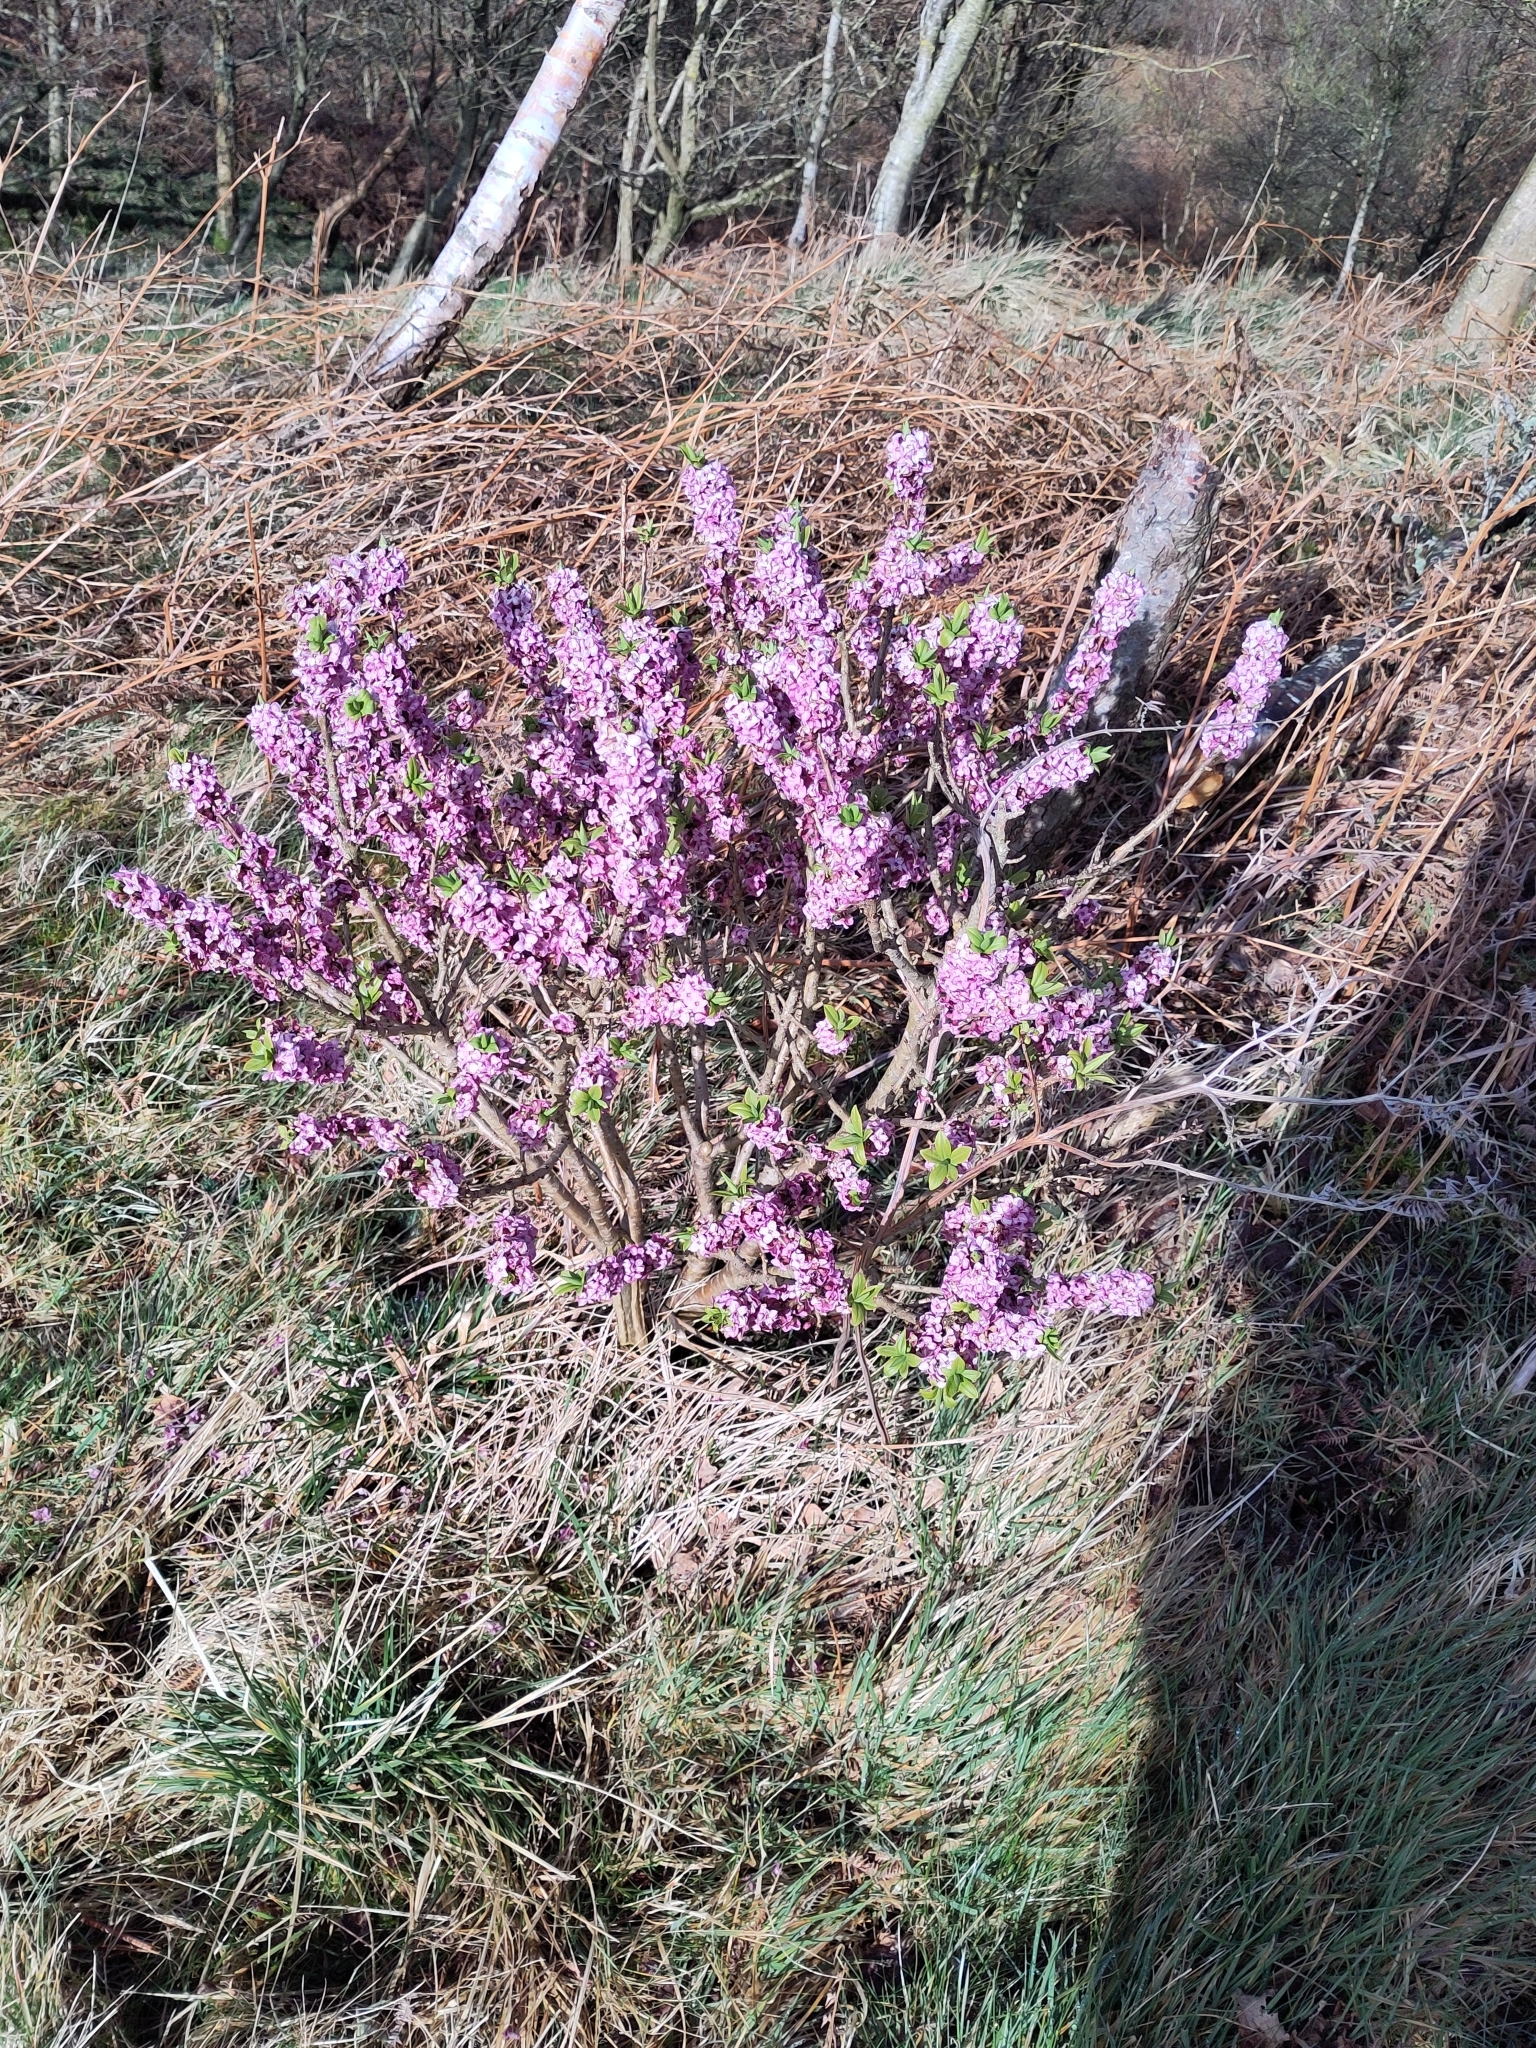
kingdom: Plantae
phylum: Tracheophyta
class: Magnoliopsida
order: Malvales
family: Thymelaeaceae
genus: Daphne
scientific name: Daphne mezereum
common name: Mezereon
